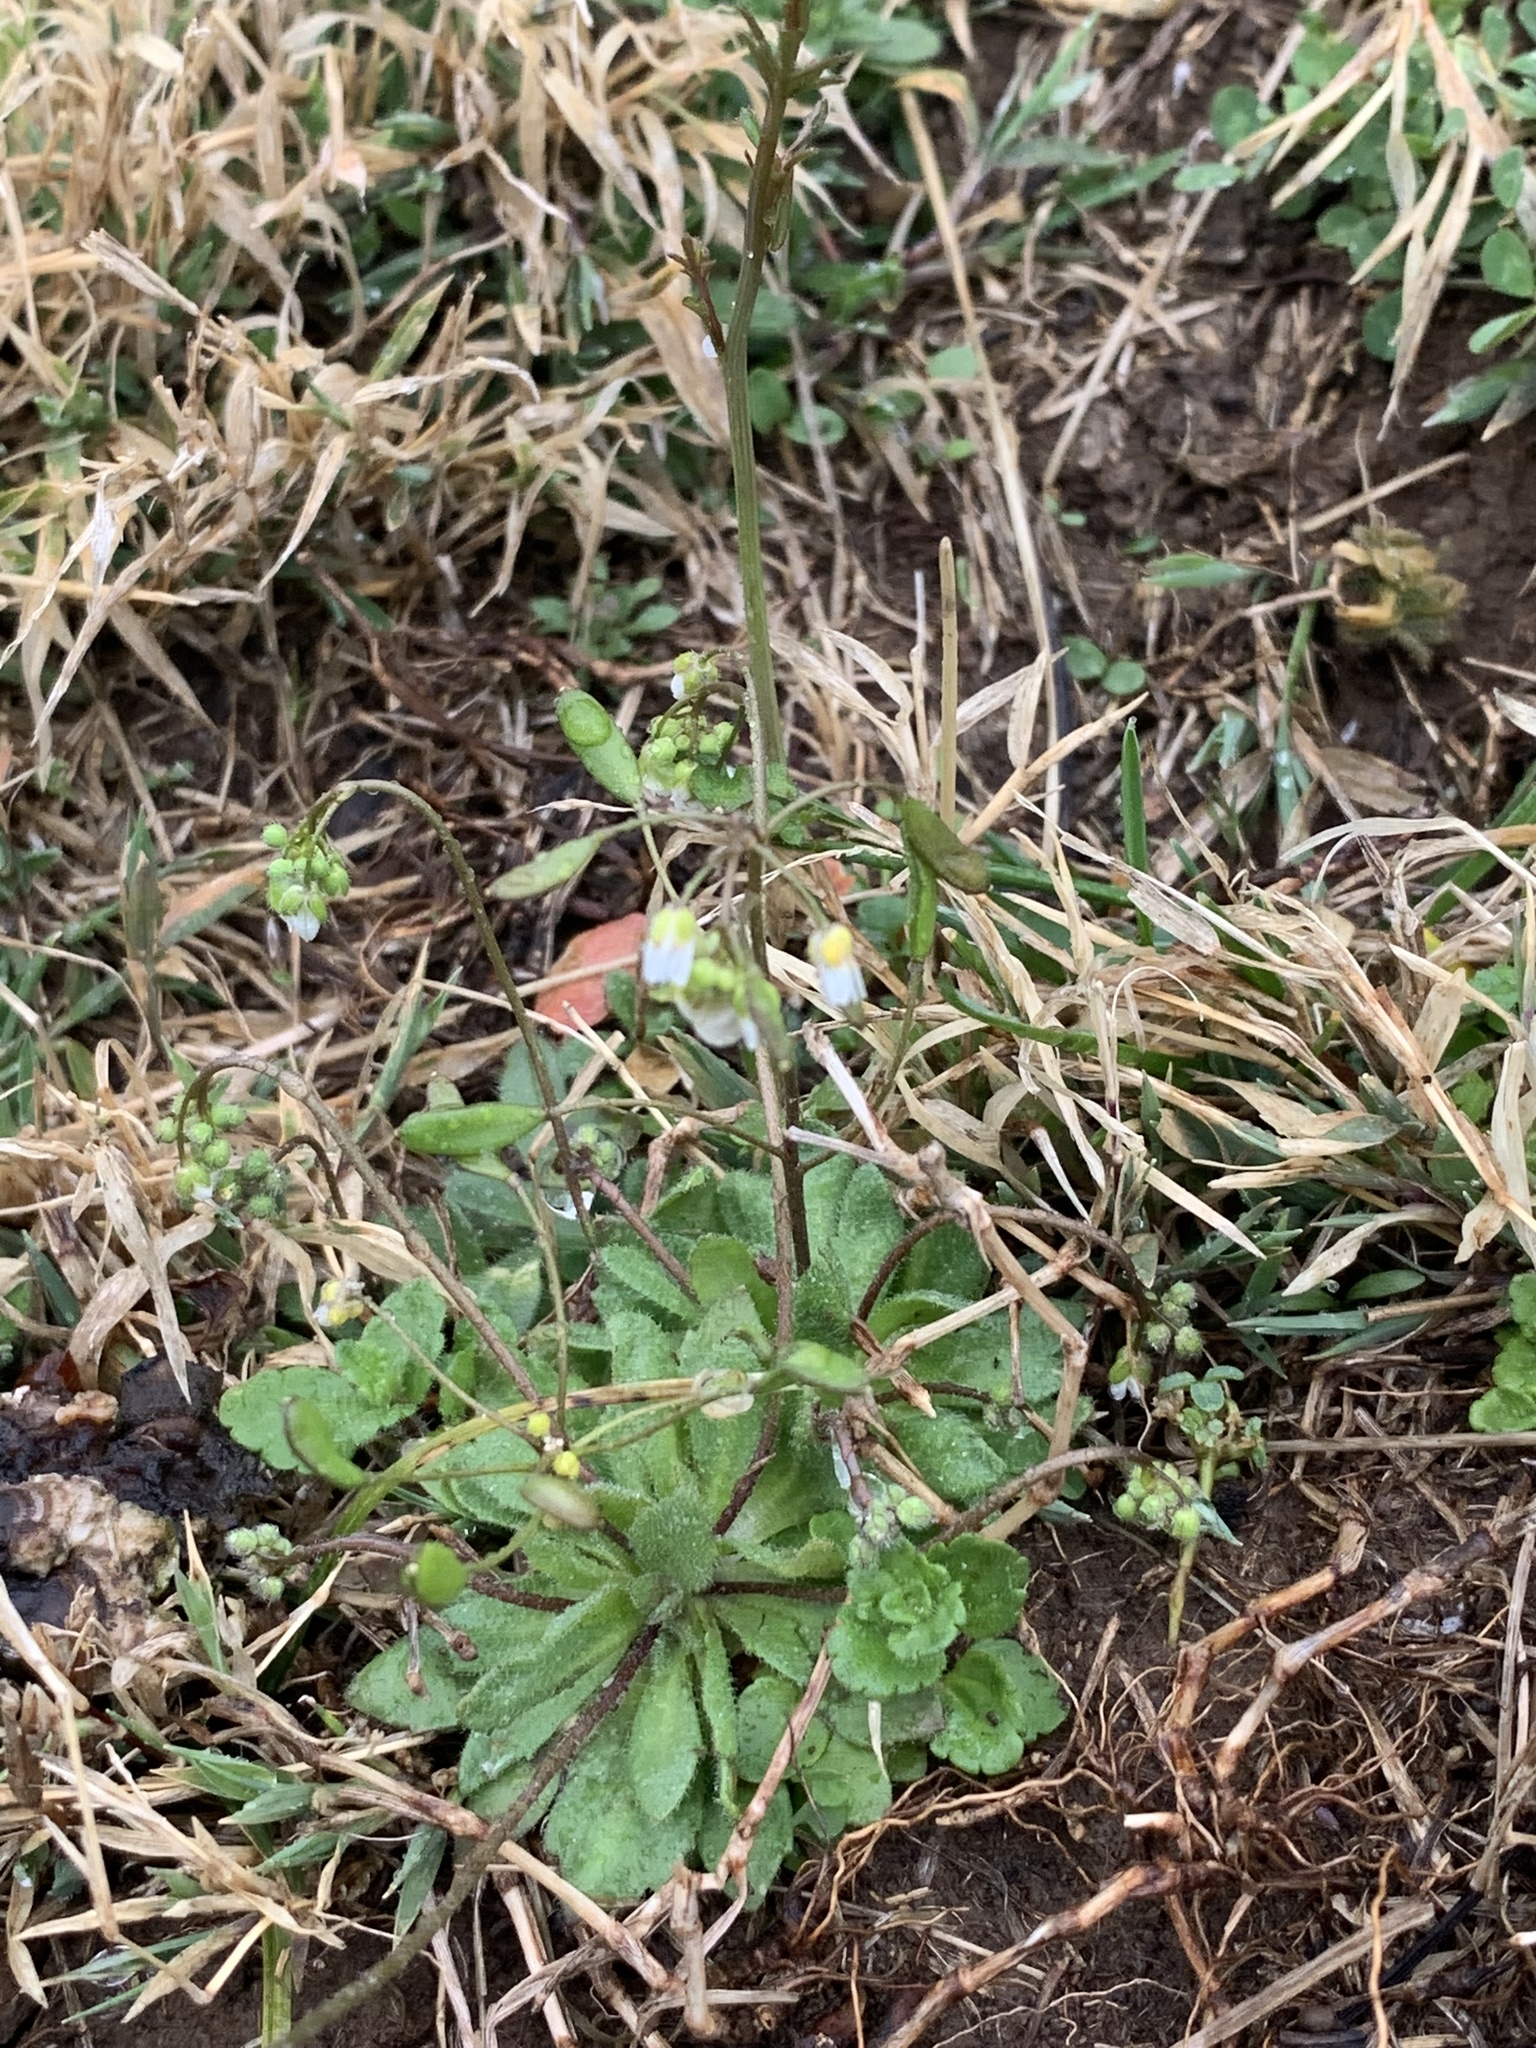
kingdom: Plantae
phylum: Tracheophyta
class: Magnoliopsida
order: Brassicales
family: Brassicaceae
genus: Draba
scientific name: Draba verna
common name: Spring draba
